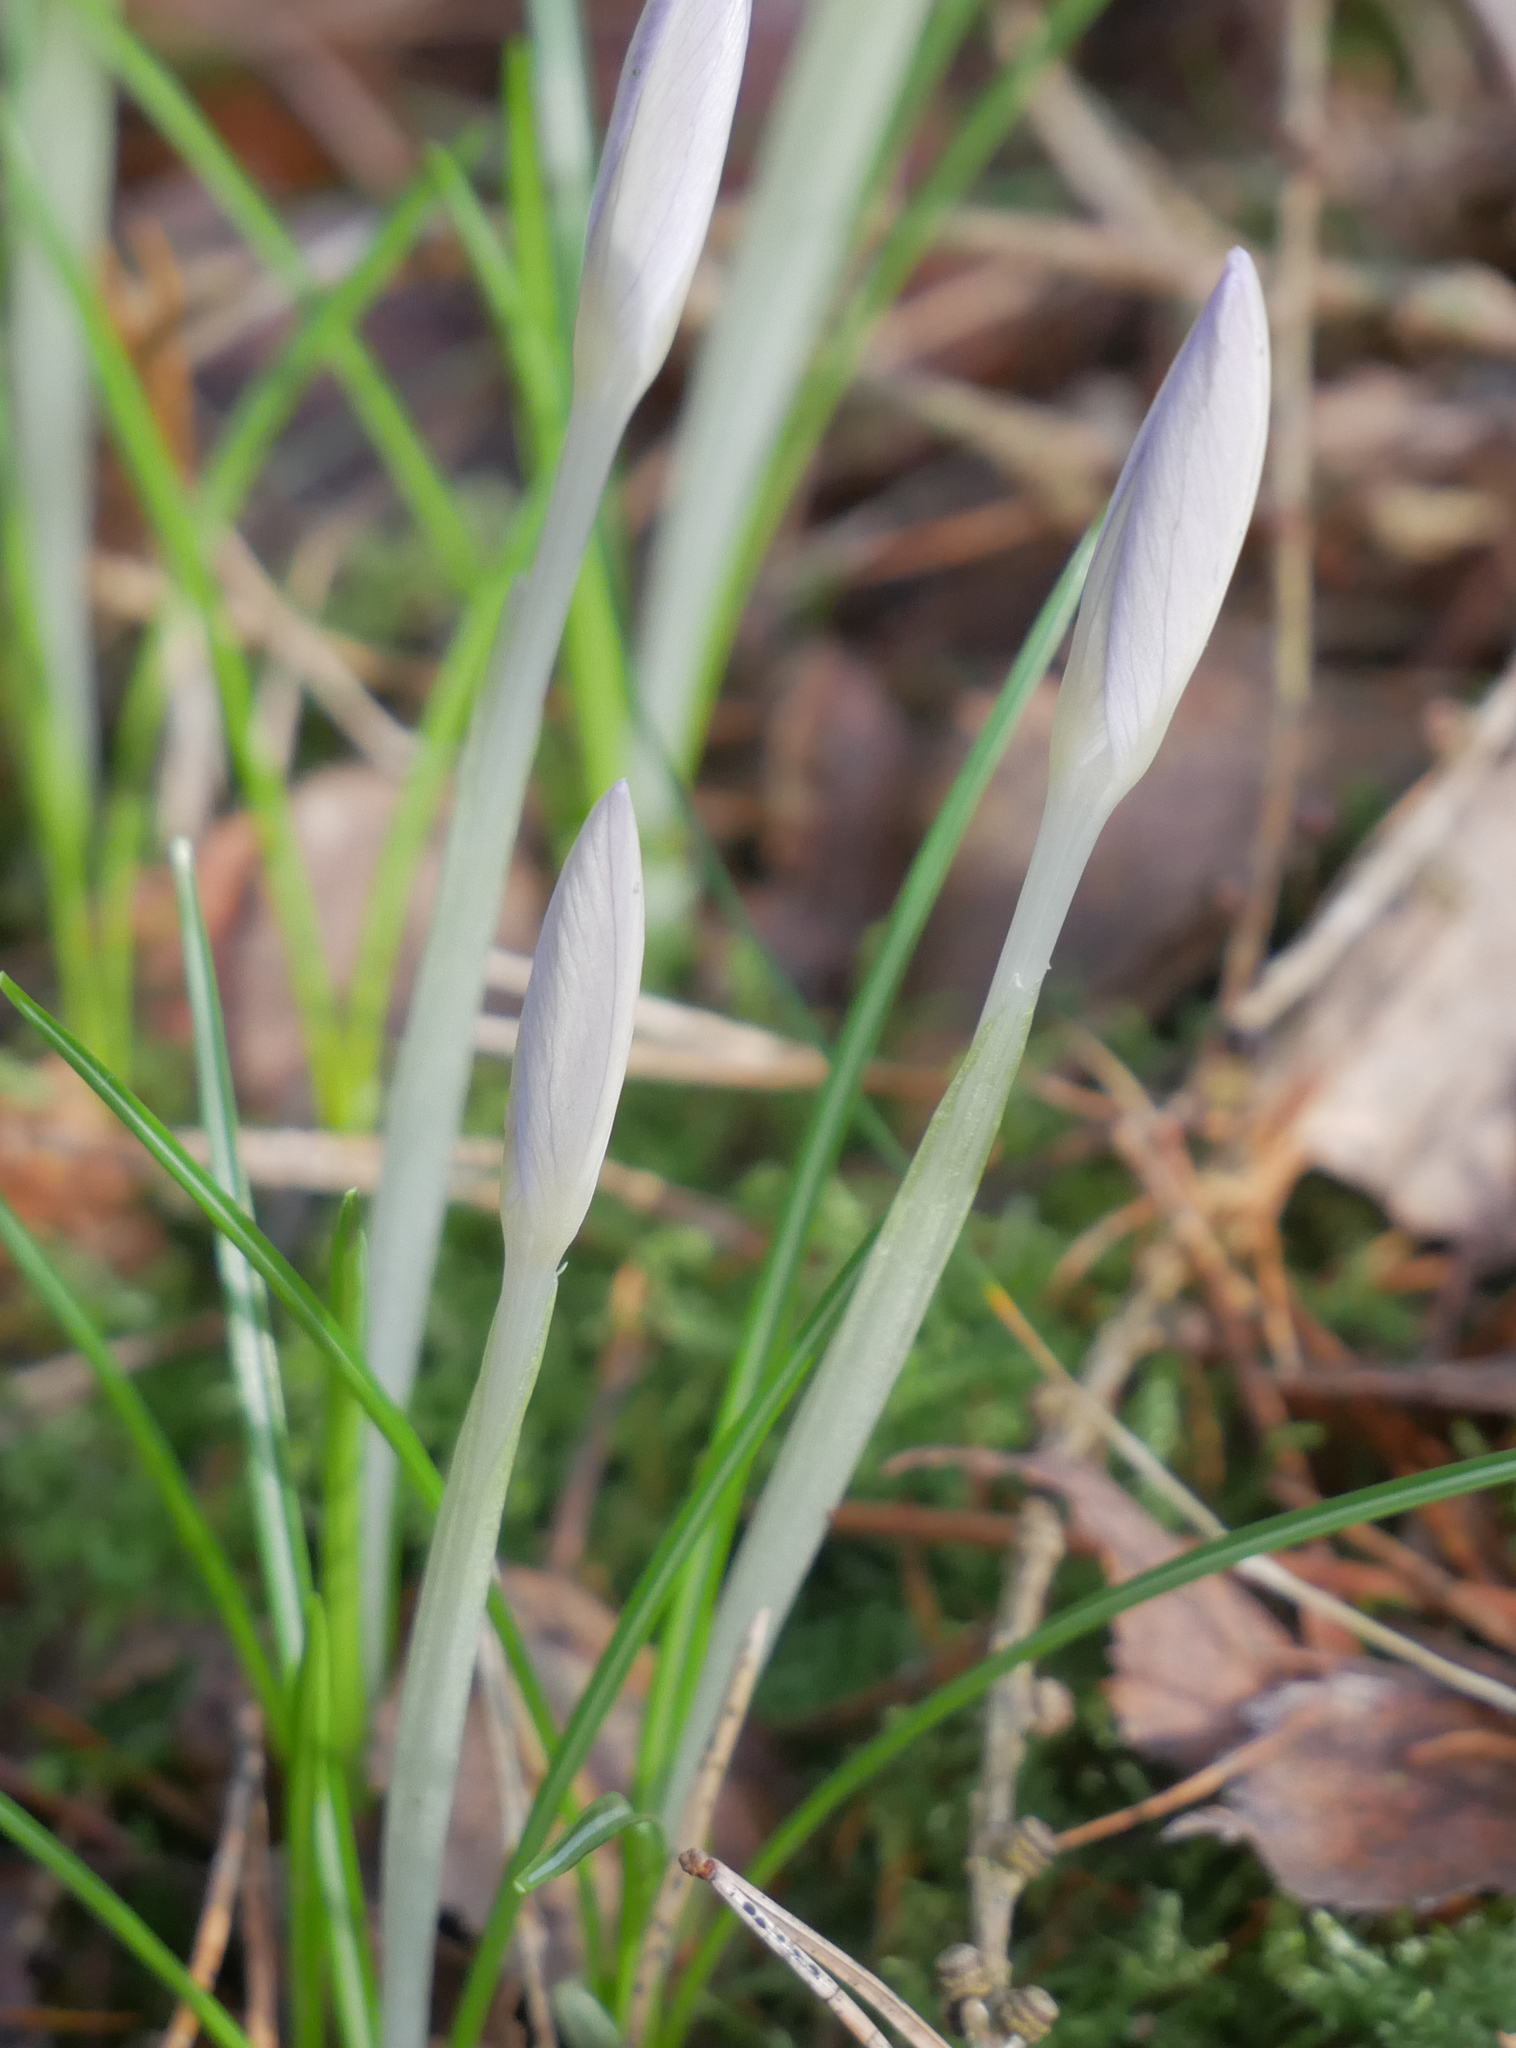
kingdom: Plantae
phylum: Tracheophyta
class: Liliopsida
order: Asparagales
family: Iridaceae
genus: Crocus
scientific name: Crocus tommasinianus
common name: Early crocus
